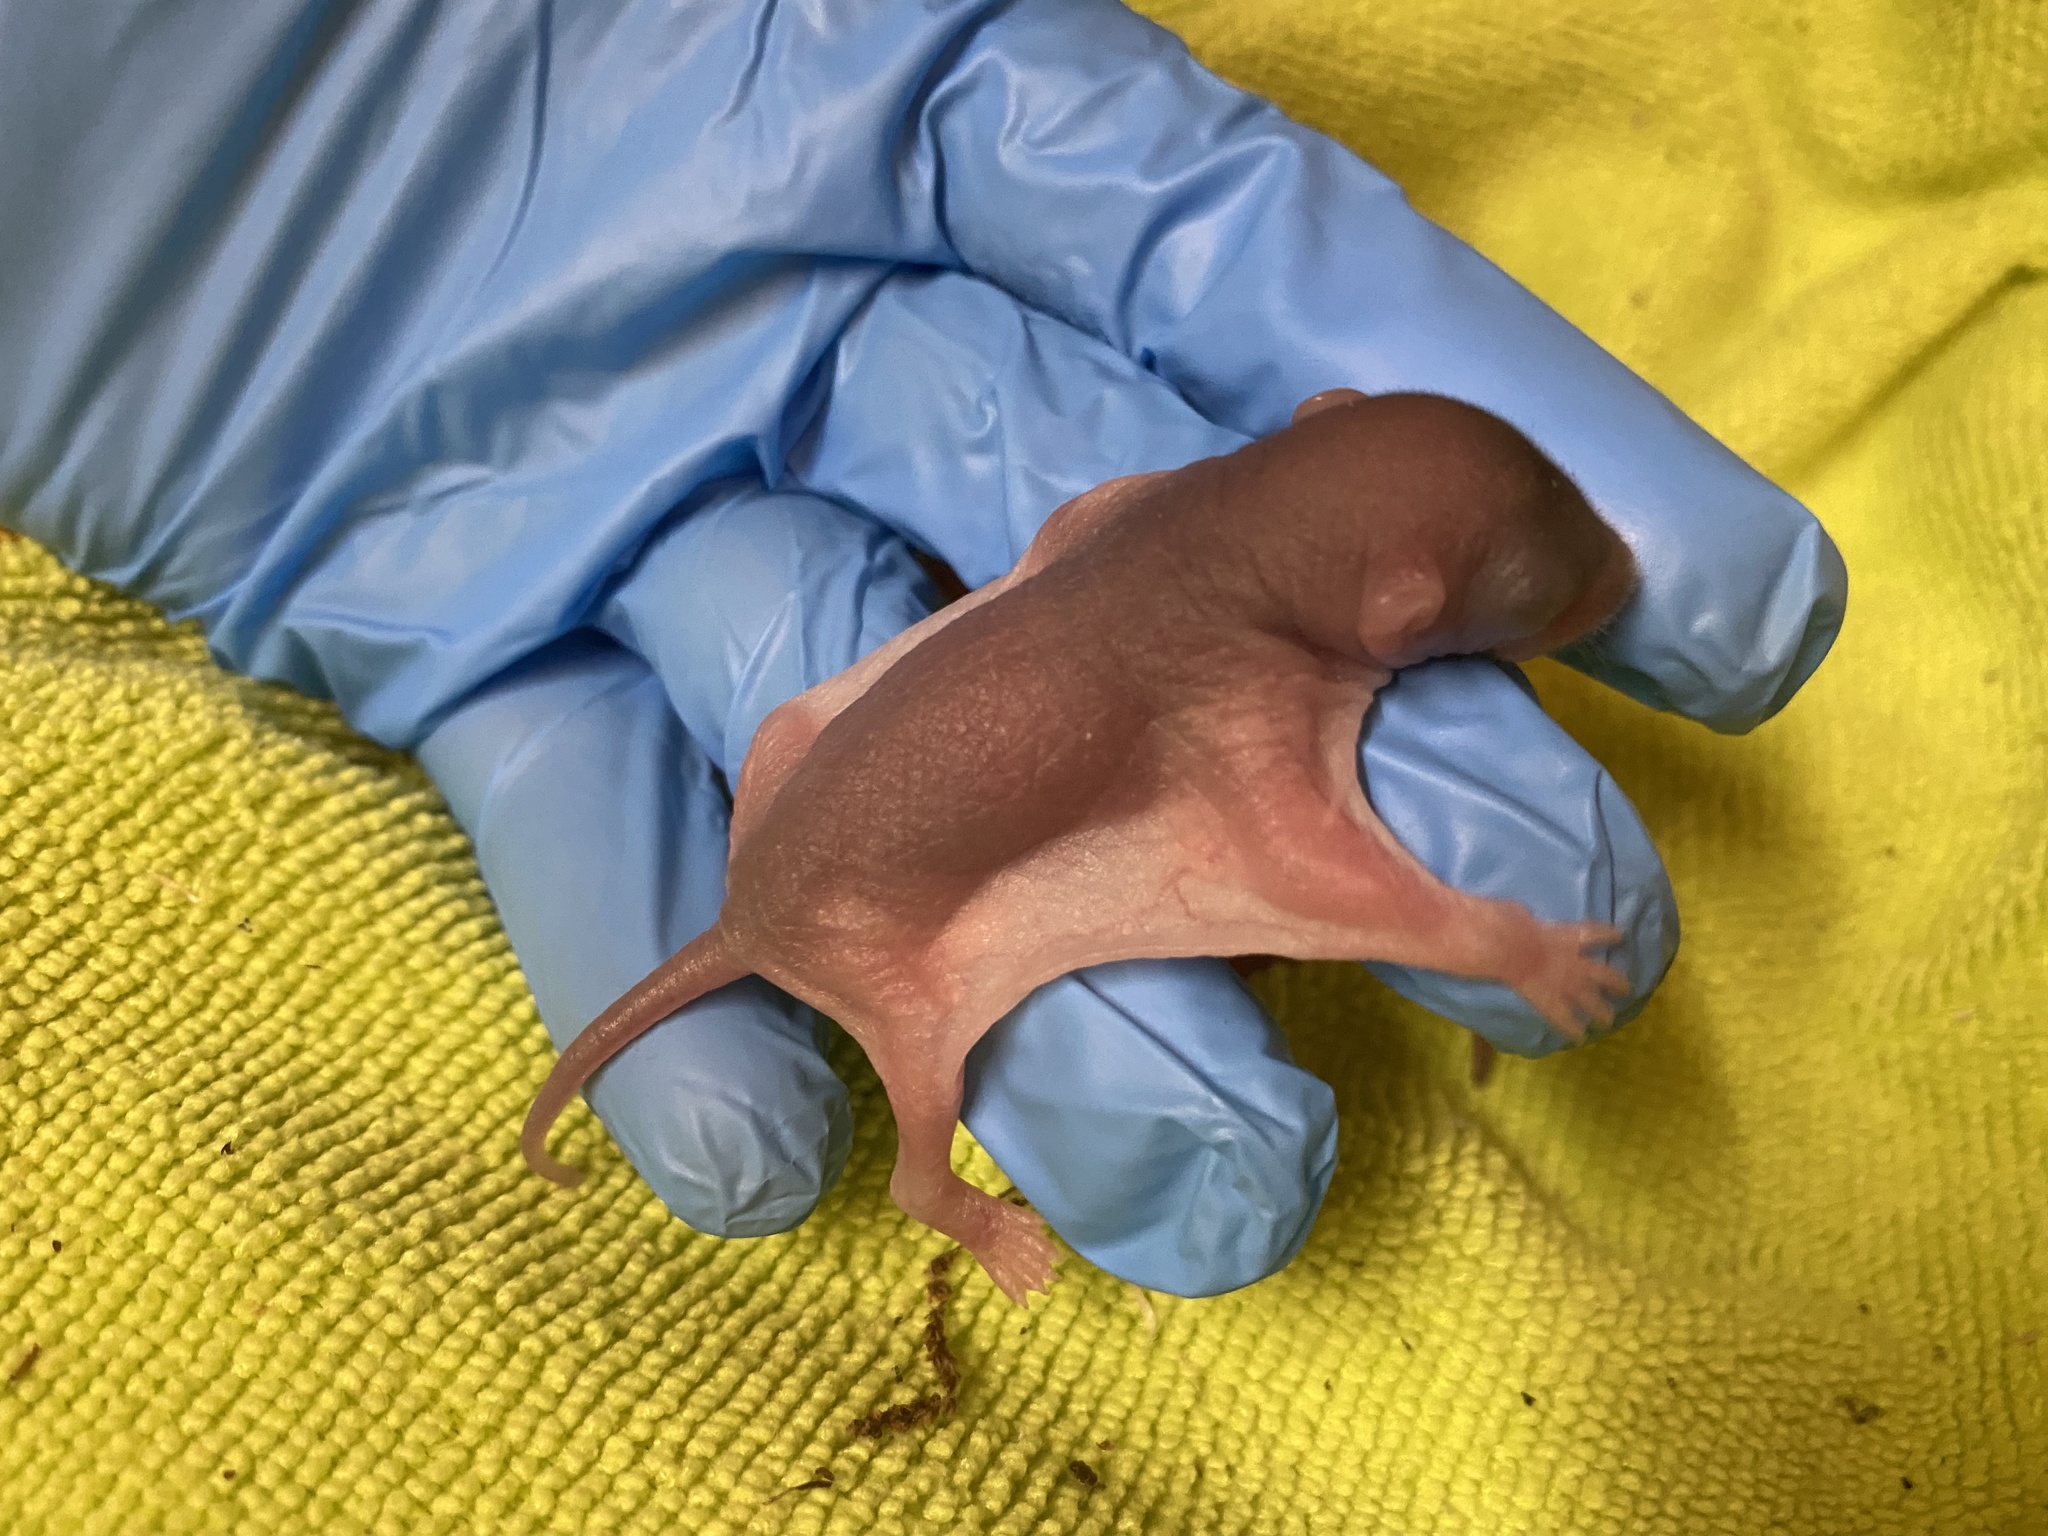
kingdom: Animalia
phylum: Chordata
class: Mammalia
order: Rodentia
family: Sciuridae
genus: Glaucomys
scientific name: Glaucomys volans
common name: Southern flying squirrel
